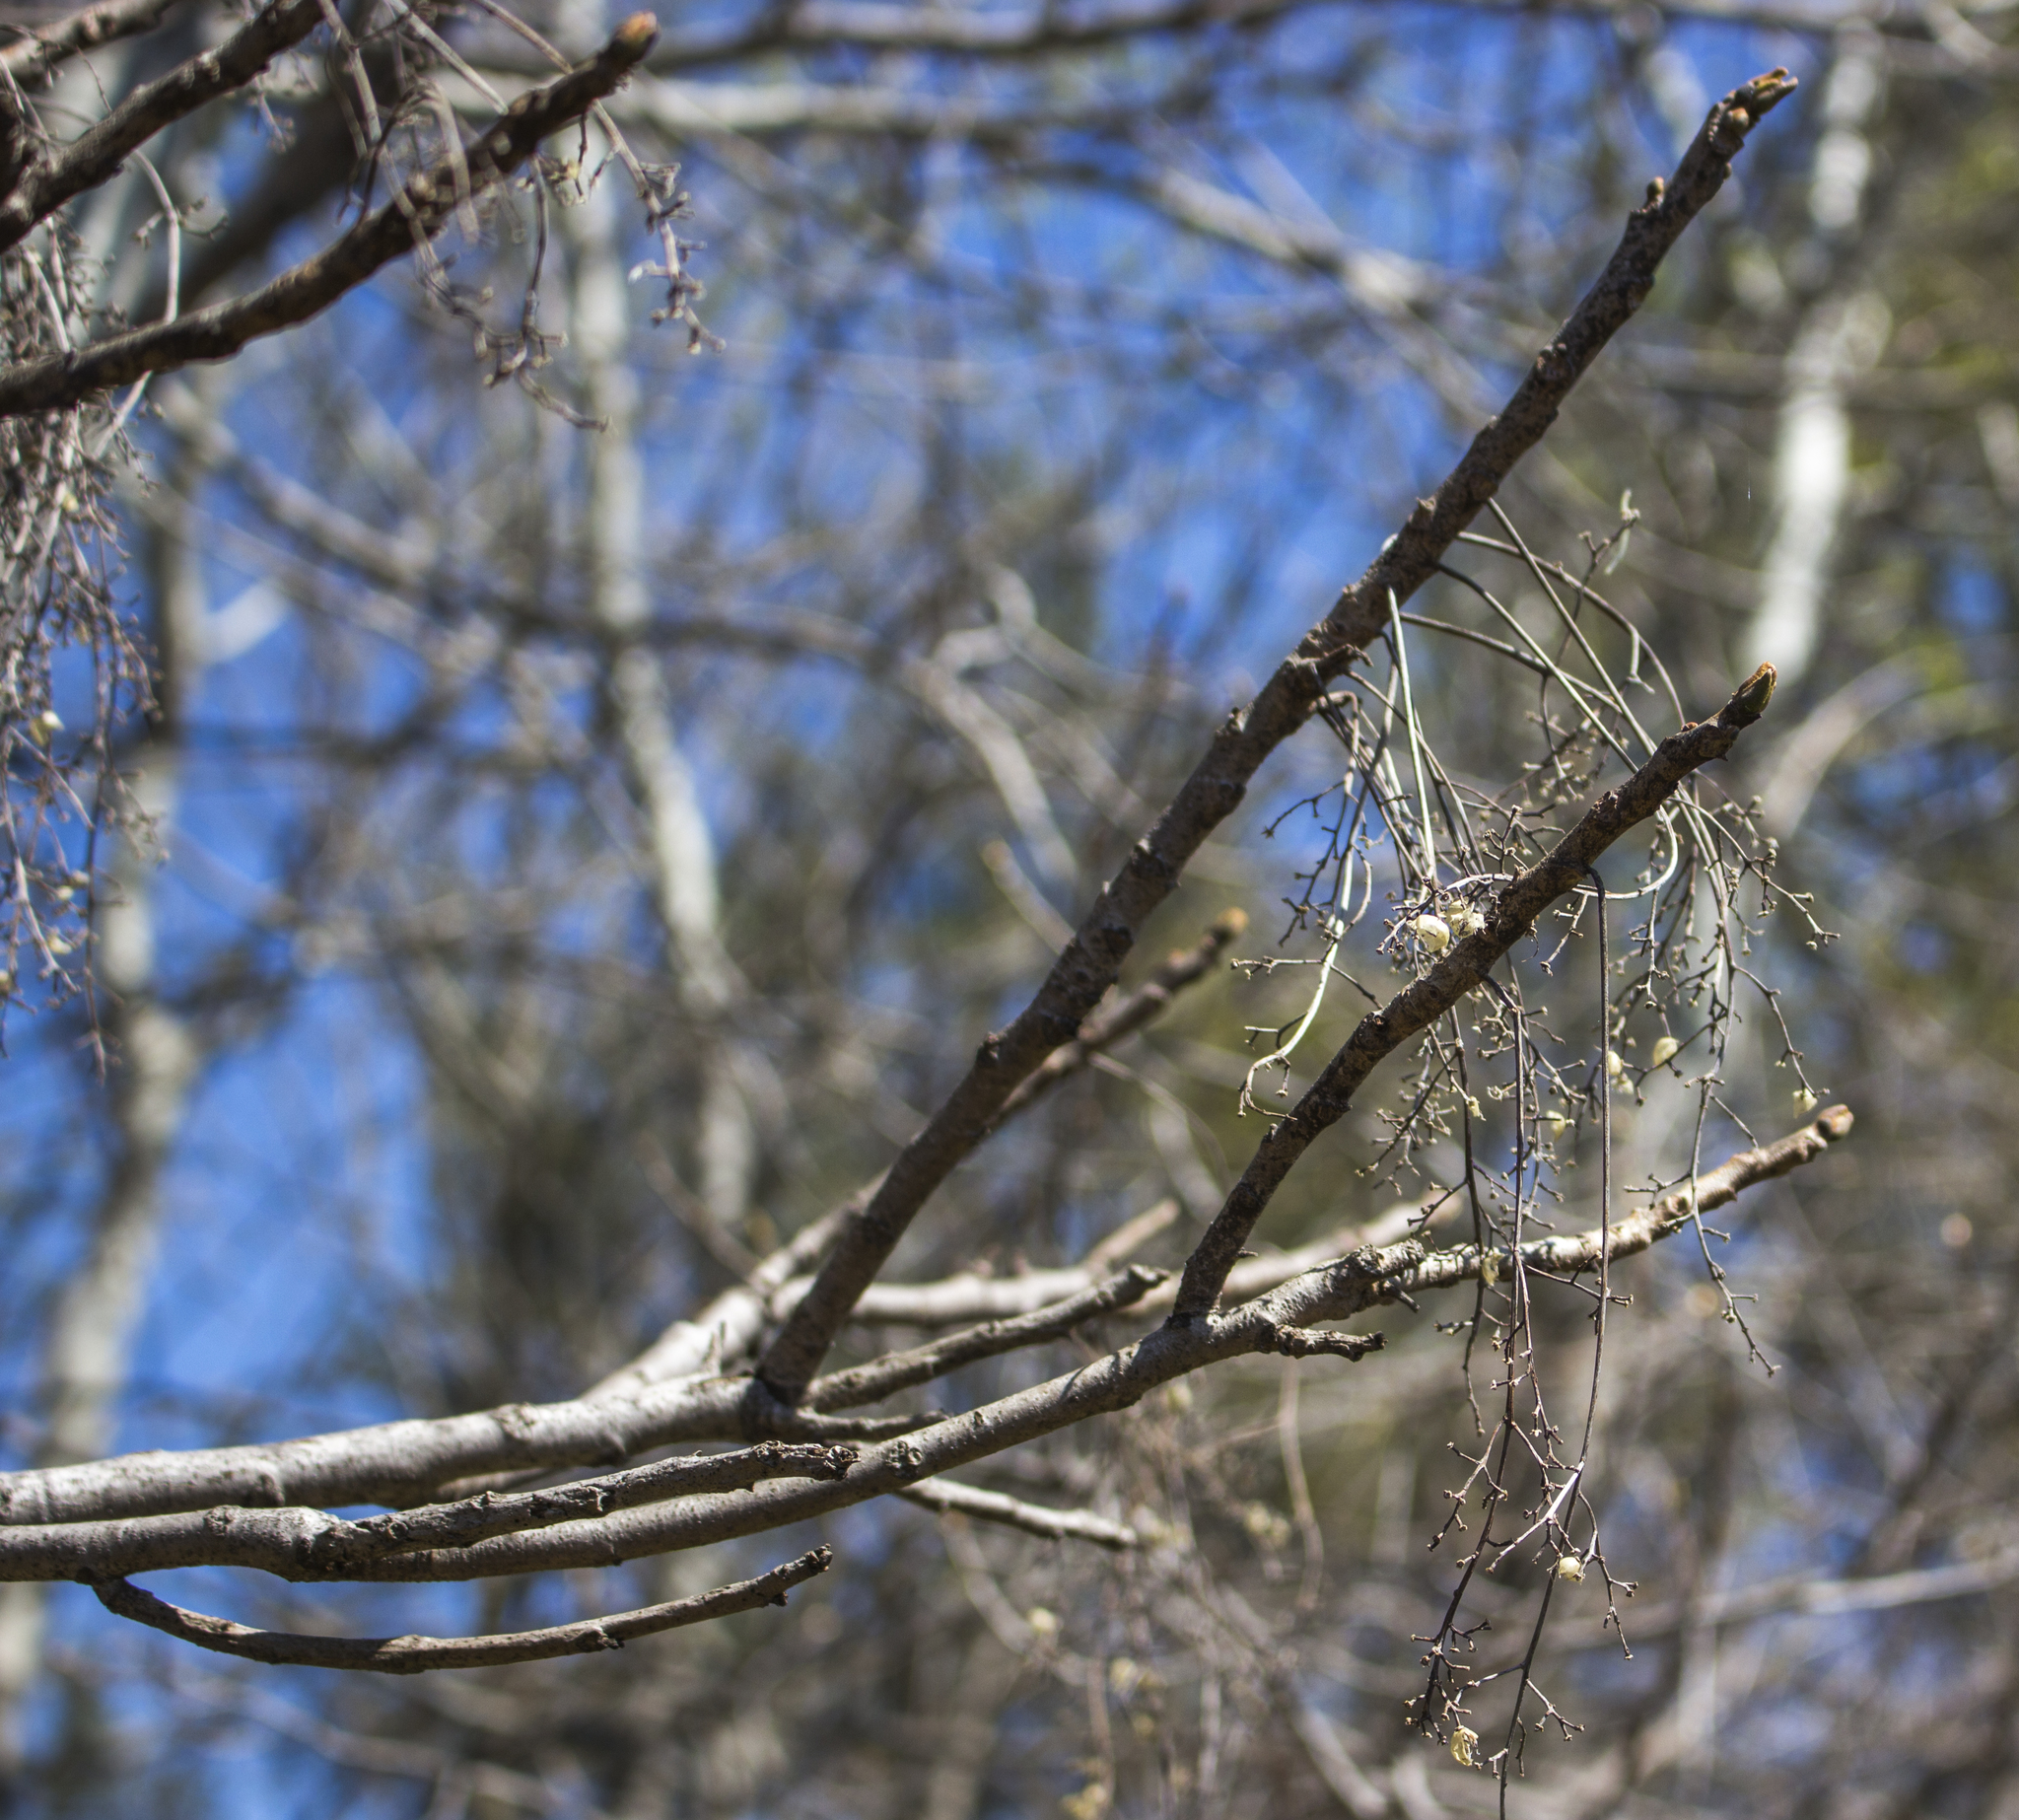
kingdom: Plantae
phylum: Tracheophyta
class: Magnoliopsida
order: Sapindales
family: Anacardiaceae
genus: Toxicodendron
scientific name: Toxicodendron vernix
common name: Poison sumac
